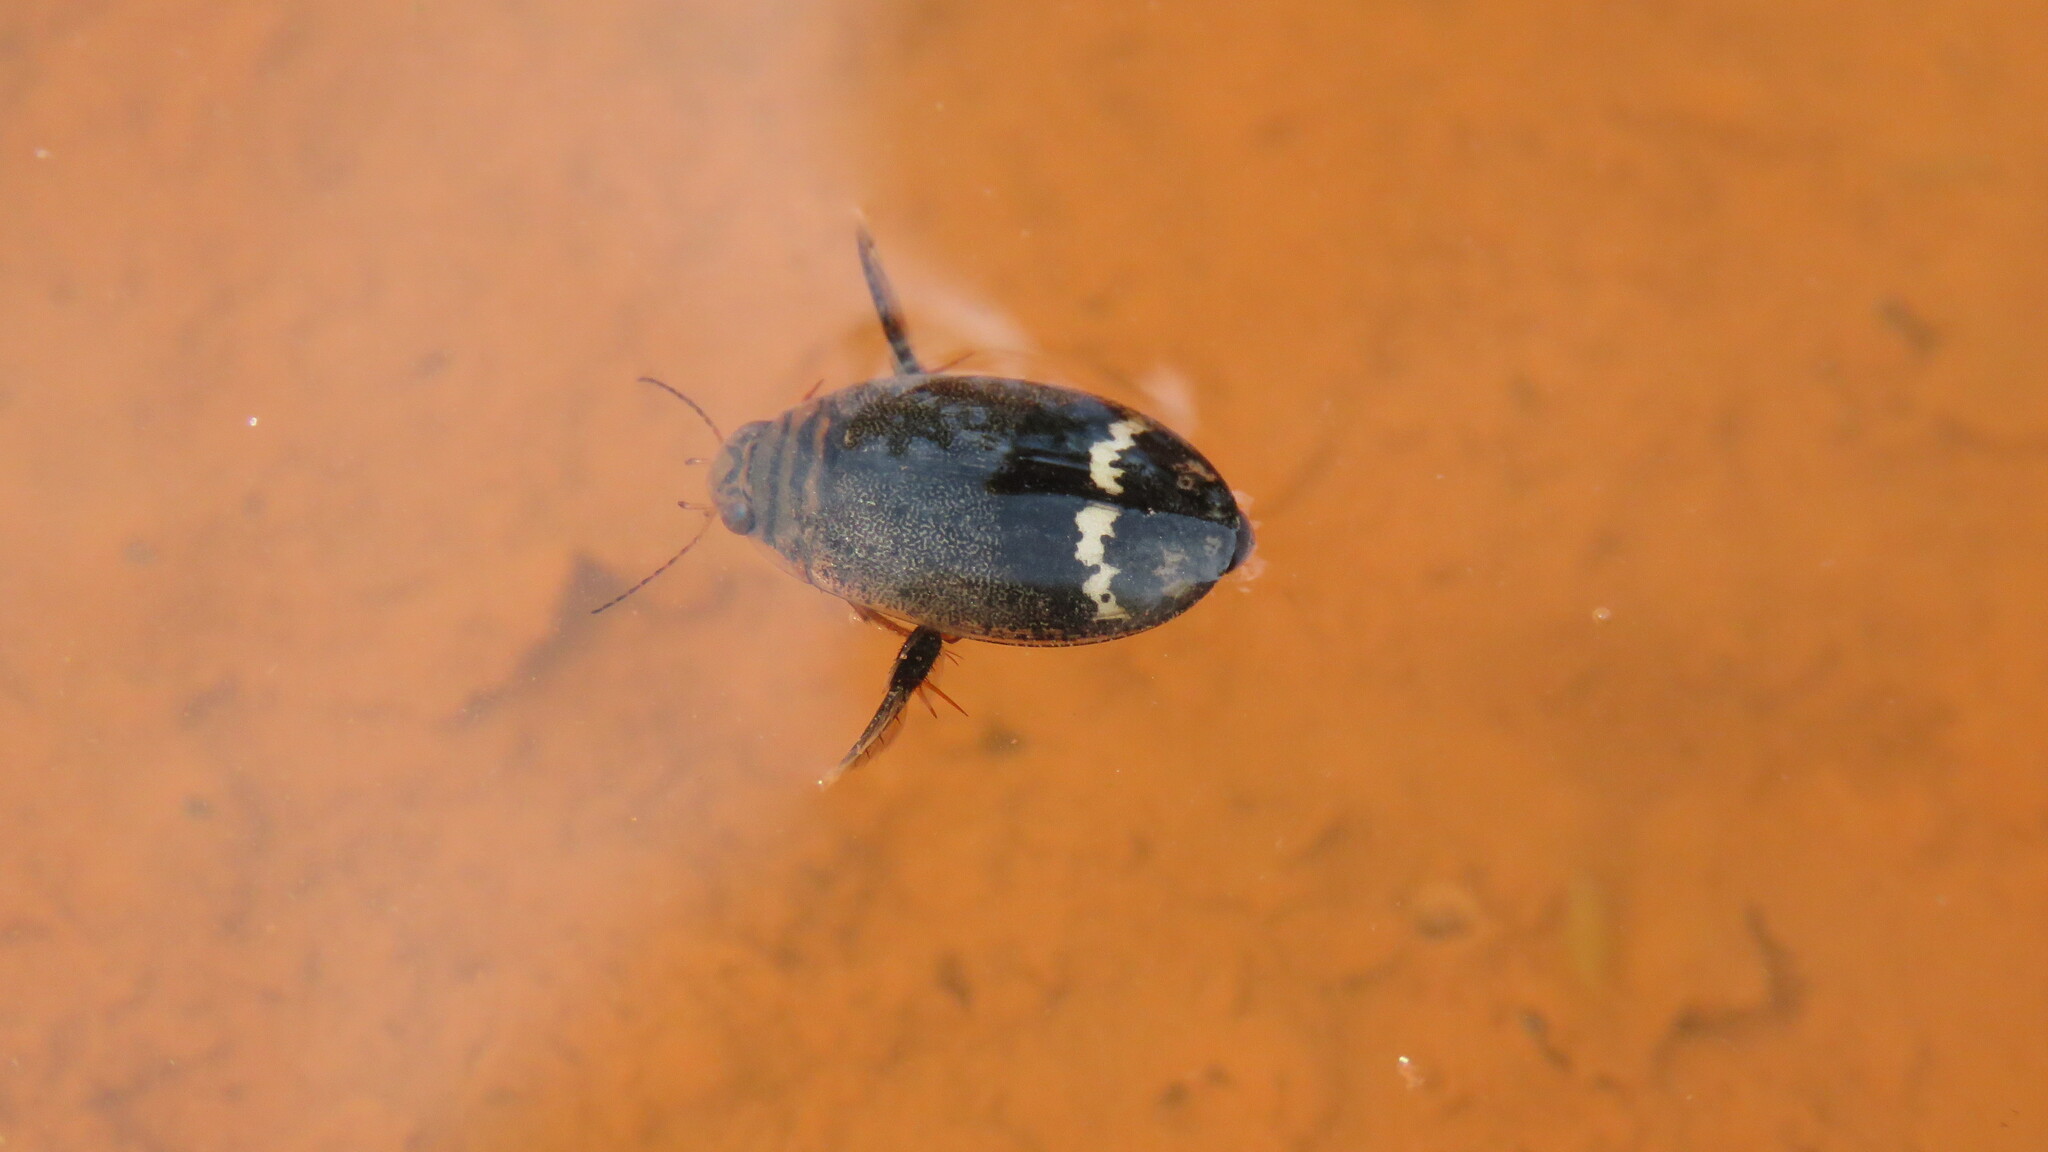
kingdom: Animalia
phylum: Arthropoda
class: Insecta
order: Coleoptera
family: Dytiscidae
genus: Acilius
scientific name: Acilius mediatus
